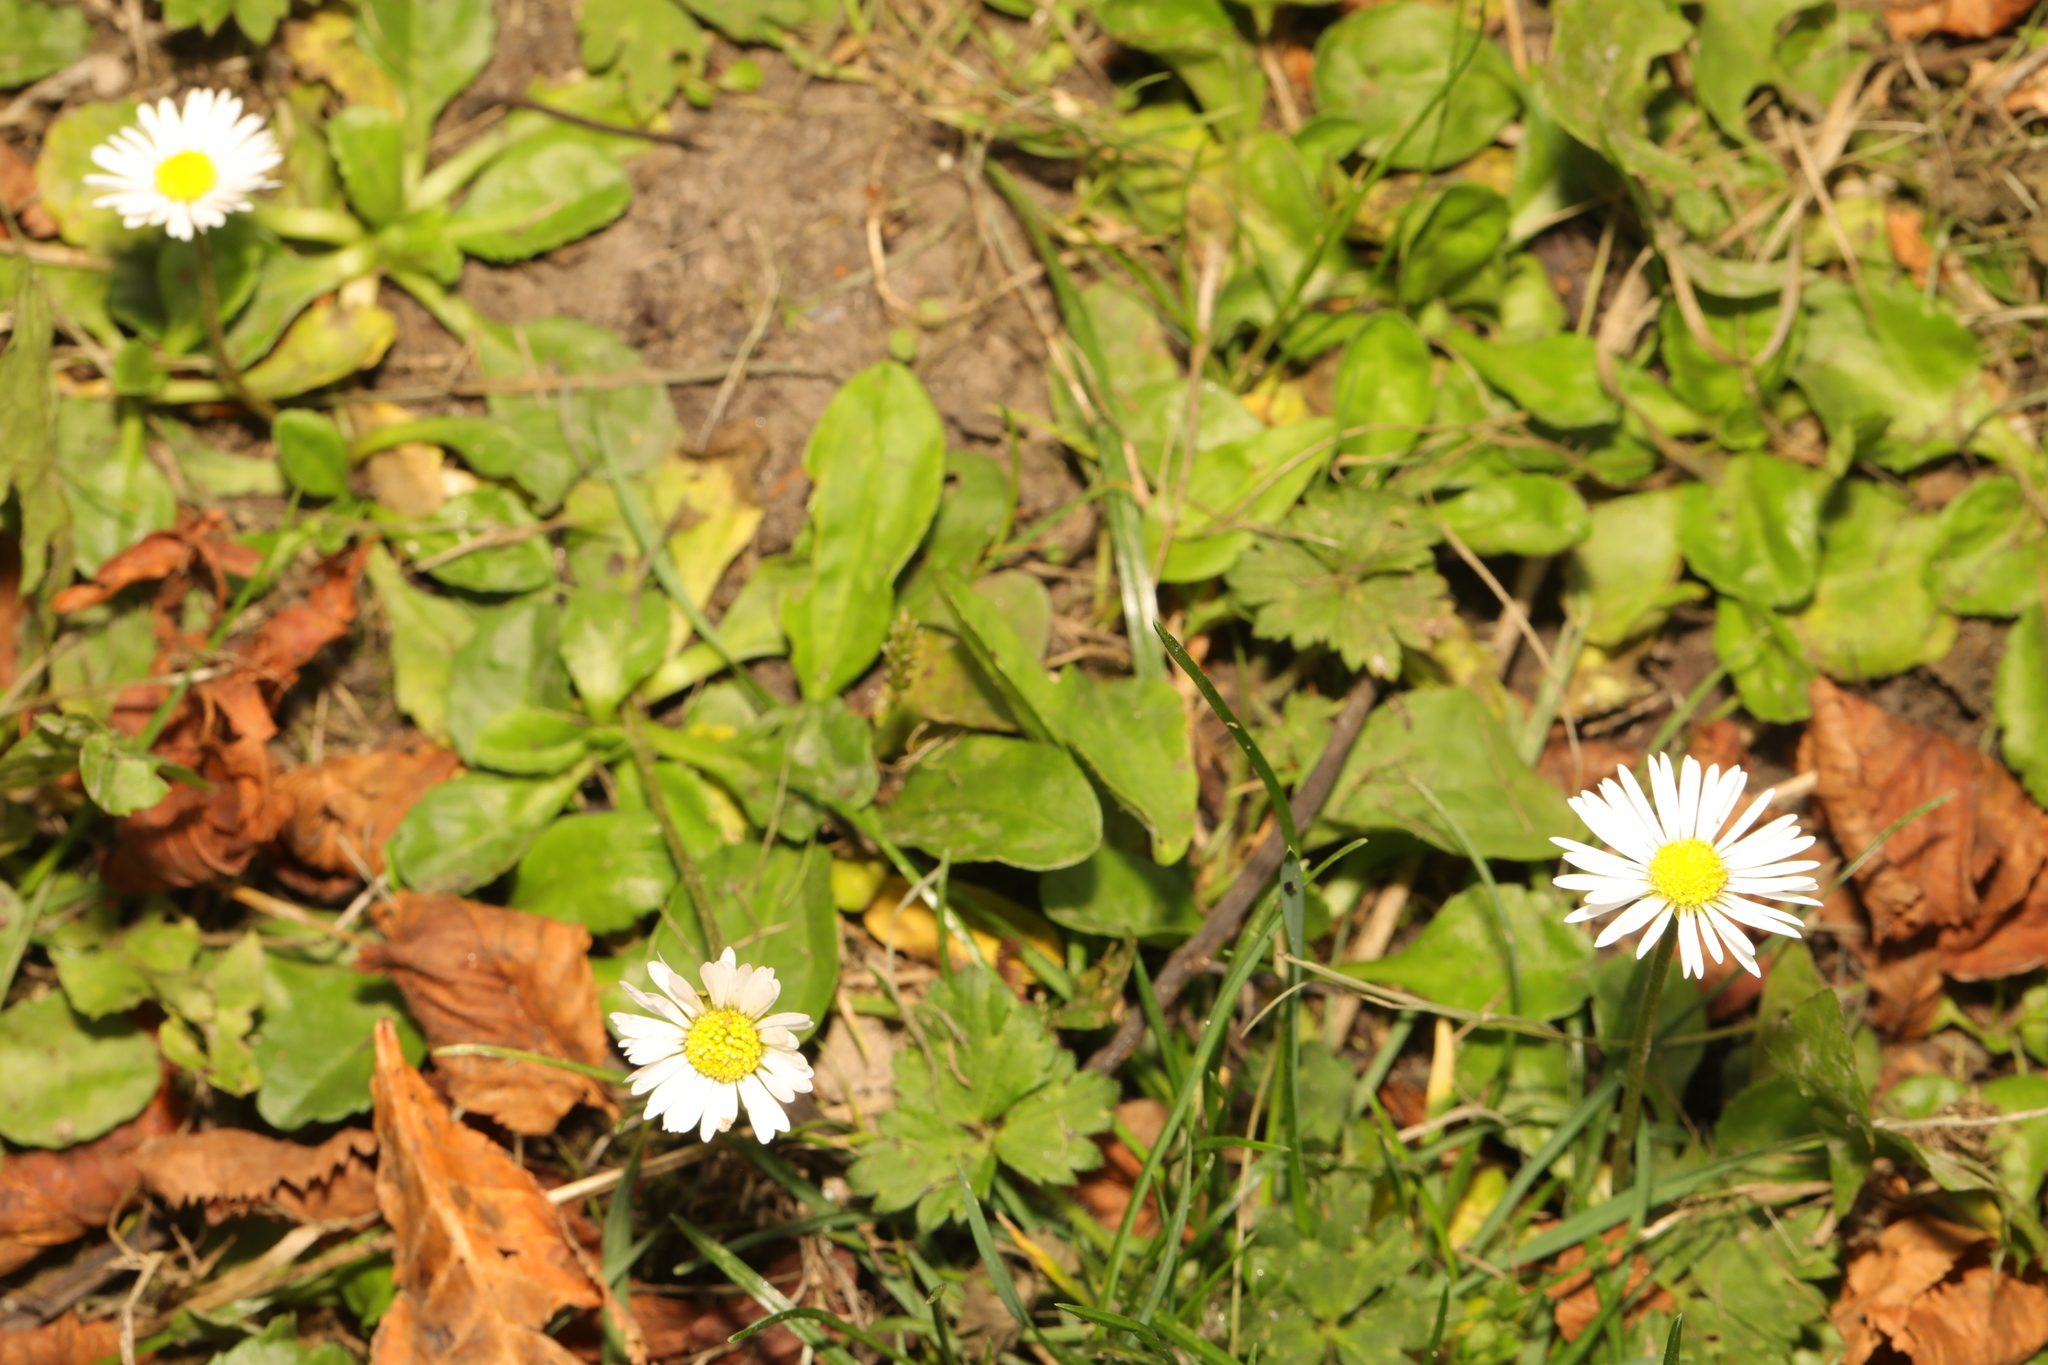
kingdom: Plantae
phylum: Tracheophyta
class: Magnoliopsida
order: Asterales
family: Asteraceae
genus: Bellis
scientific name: Bellis perennis
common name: Lawndaisy
